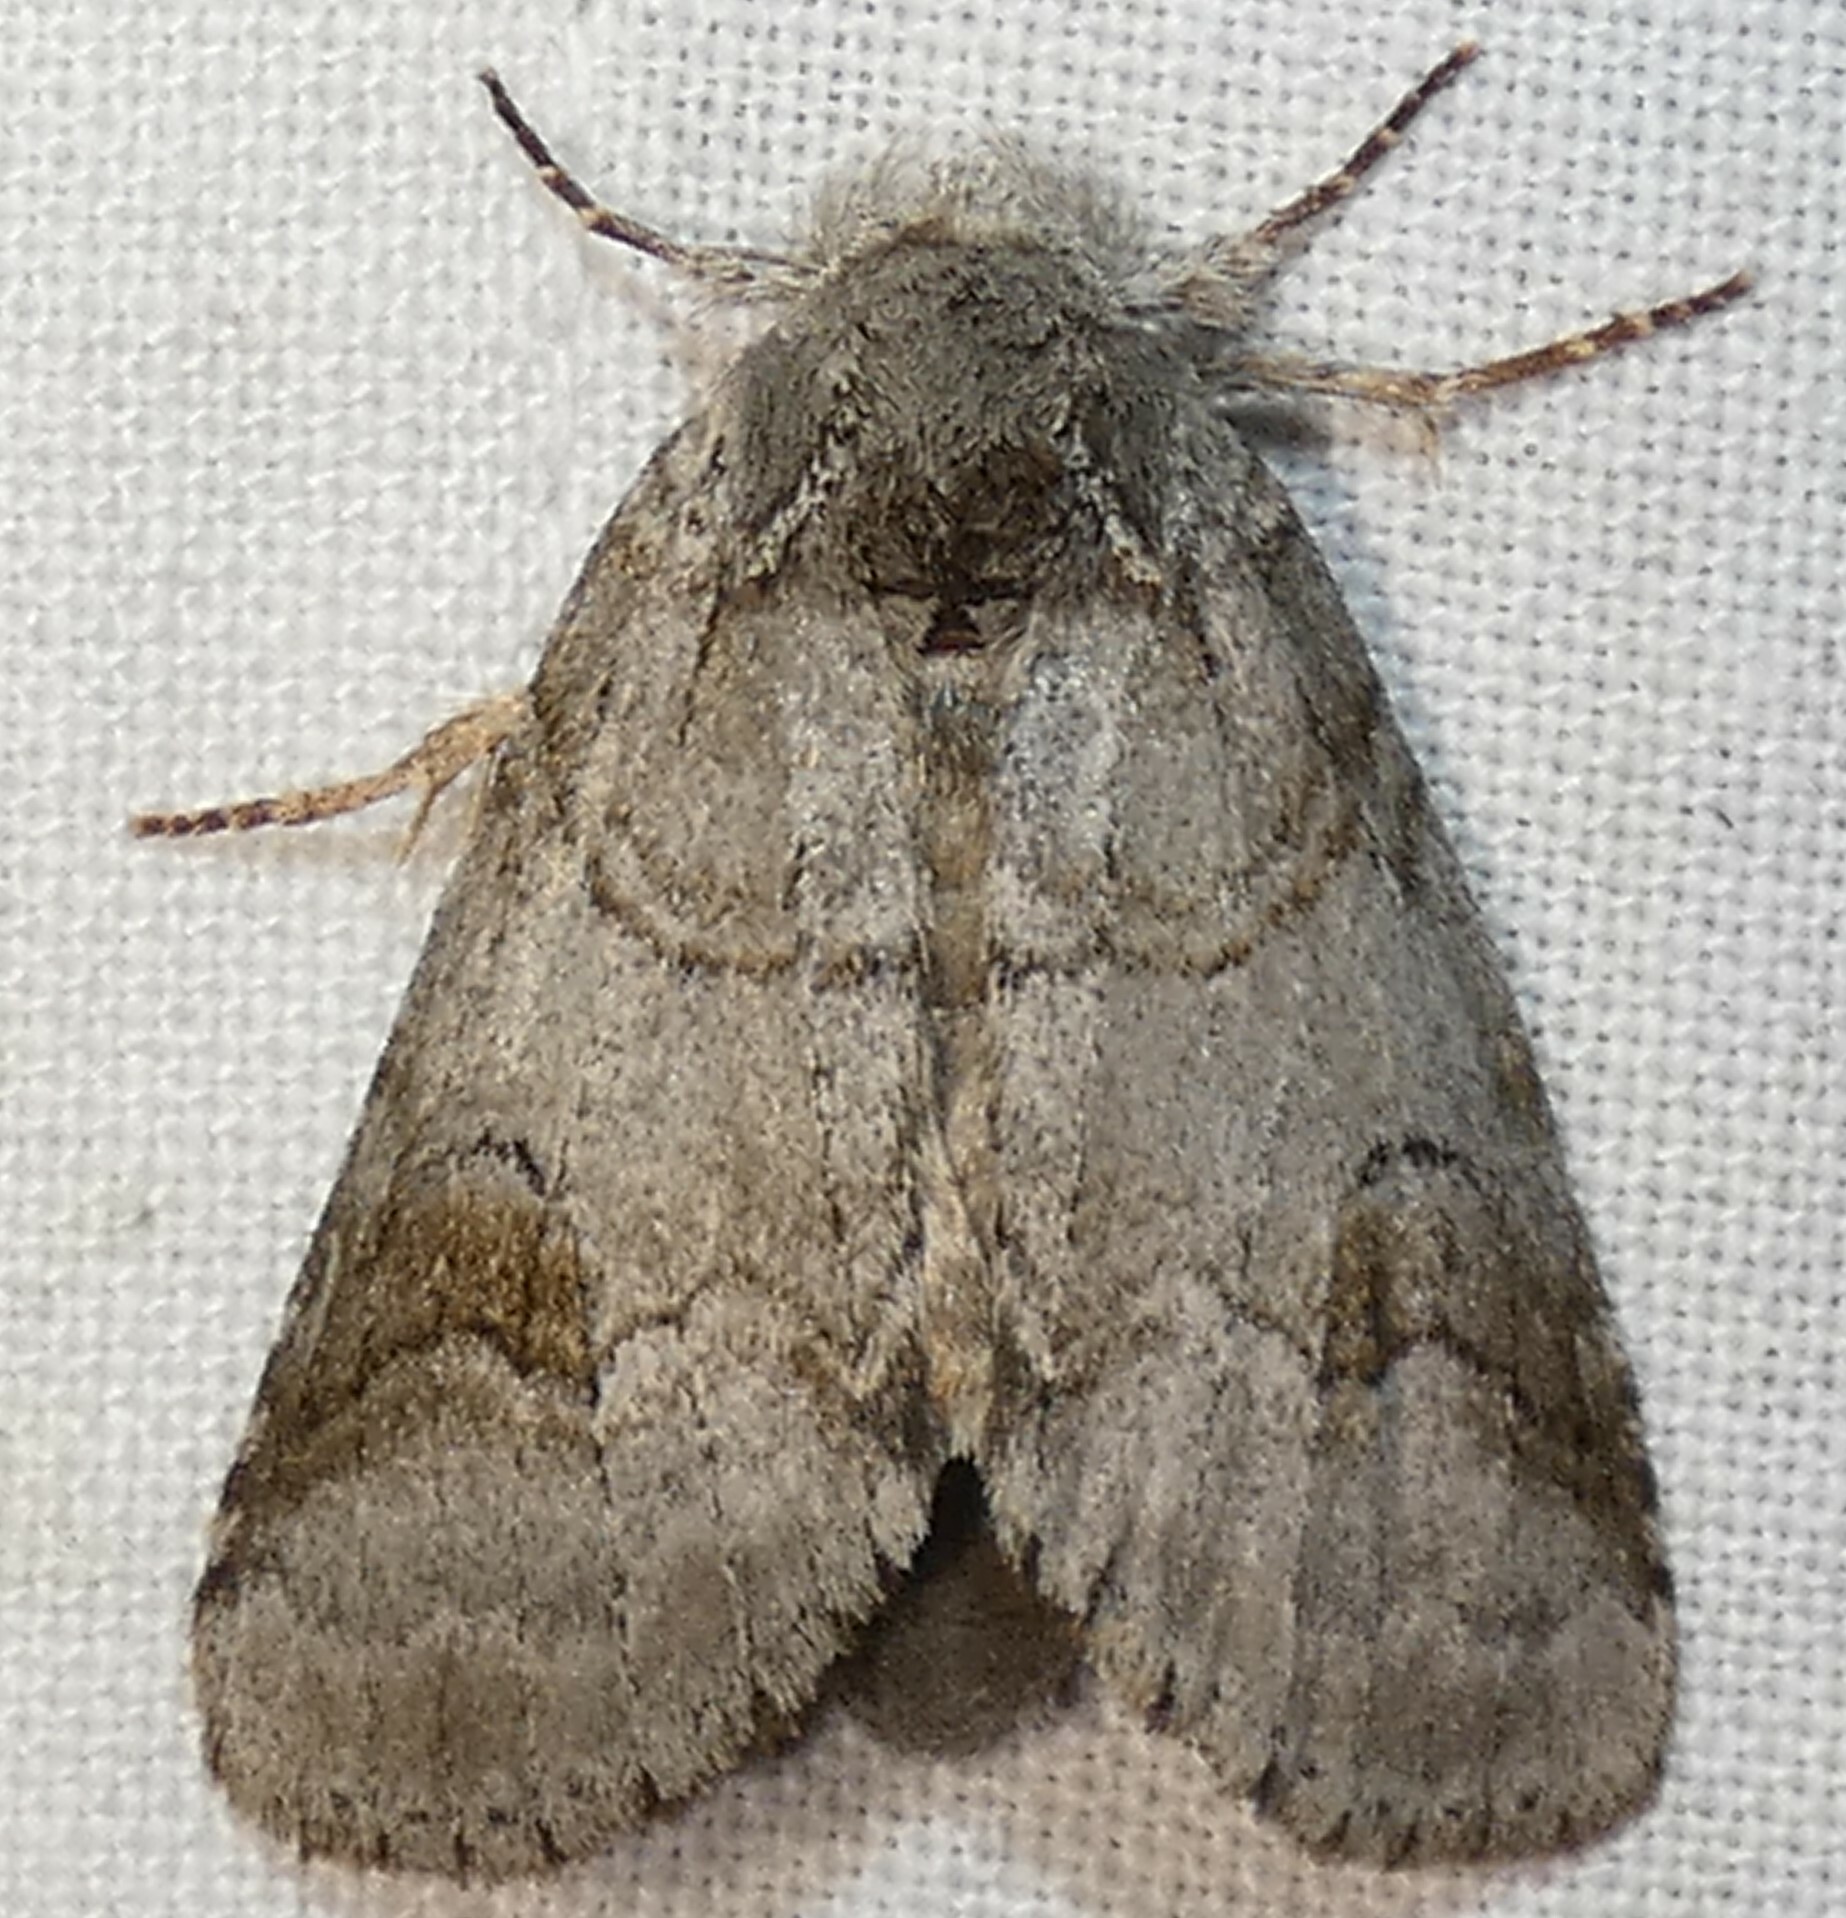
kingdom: Animalia
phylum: Arthropoda
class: Insecta
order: Lepidoptera
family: Notodontidae
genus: Lochmaeus
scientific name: Lochmaeus bilineata
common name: Double-lined prominent
